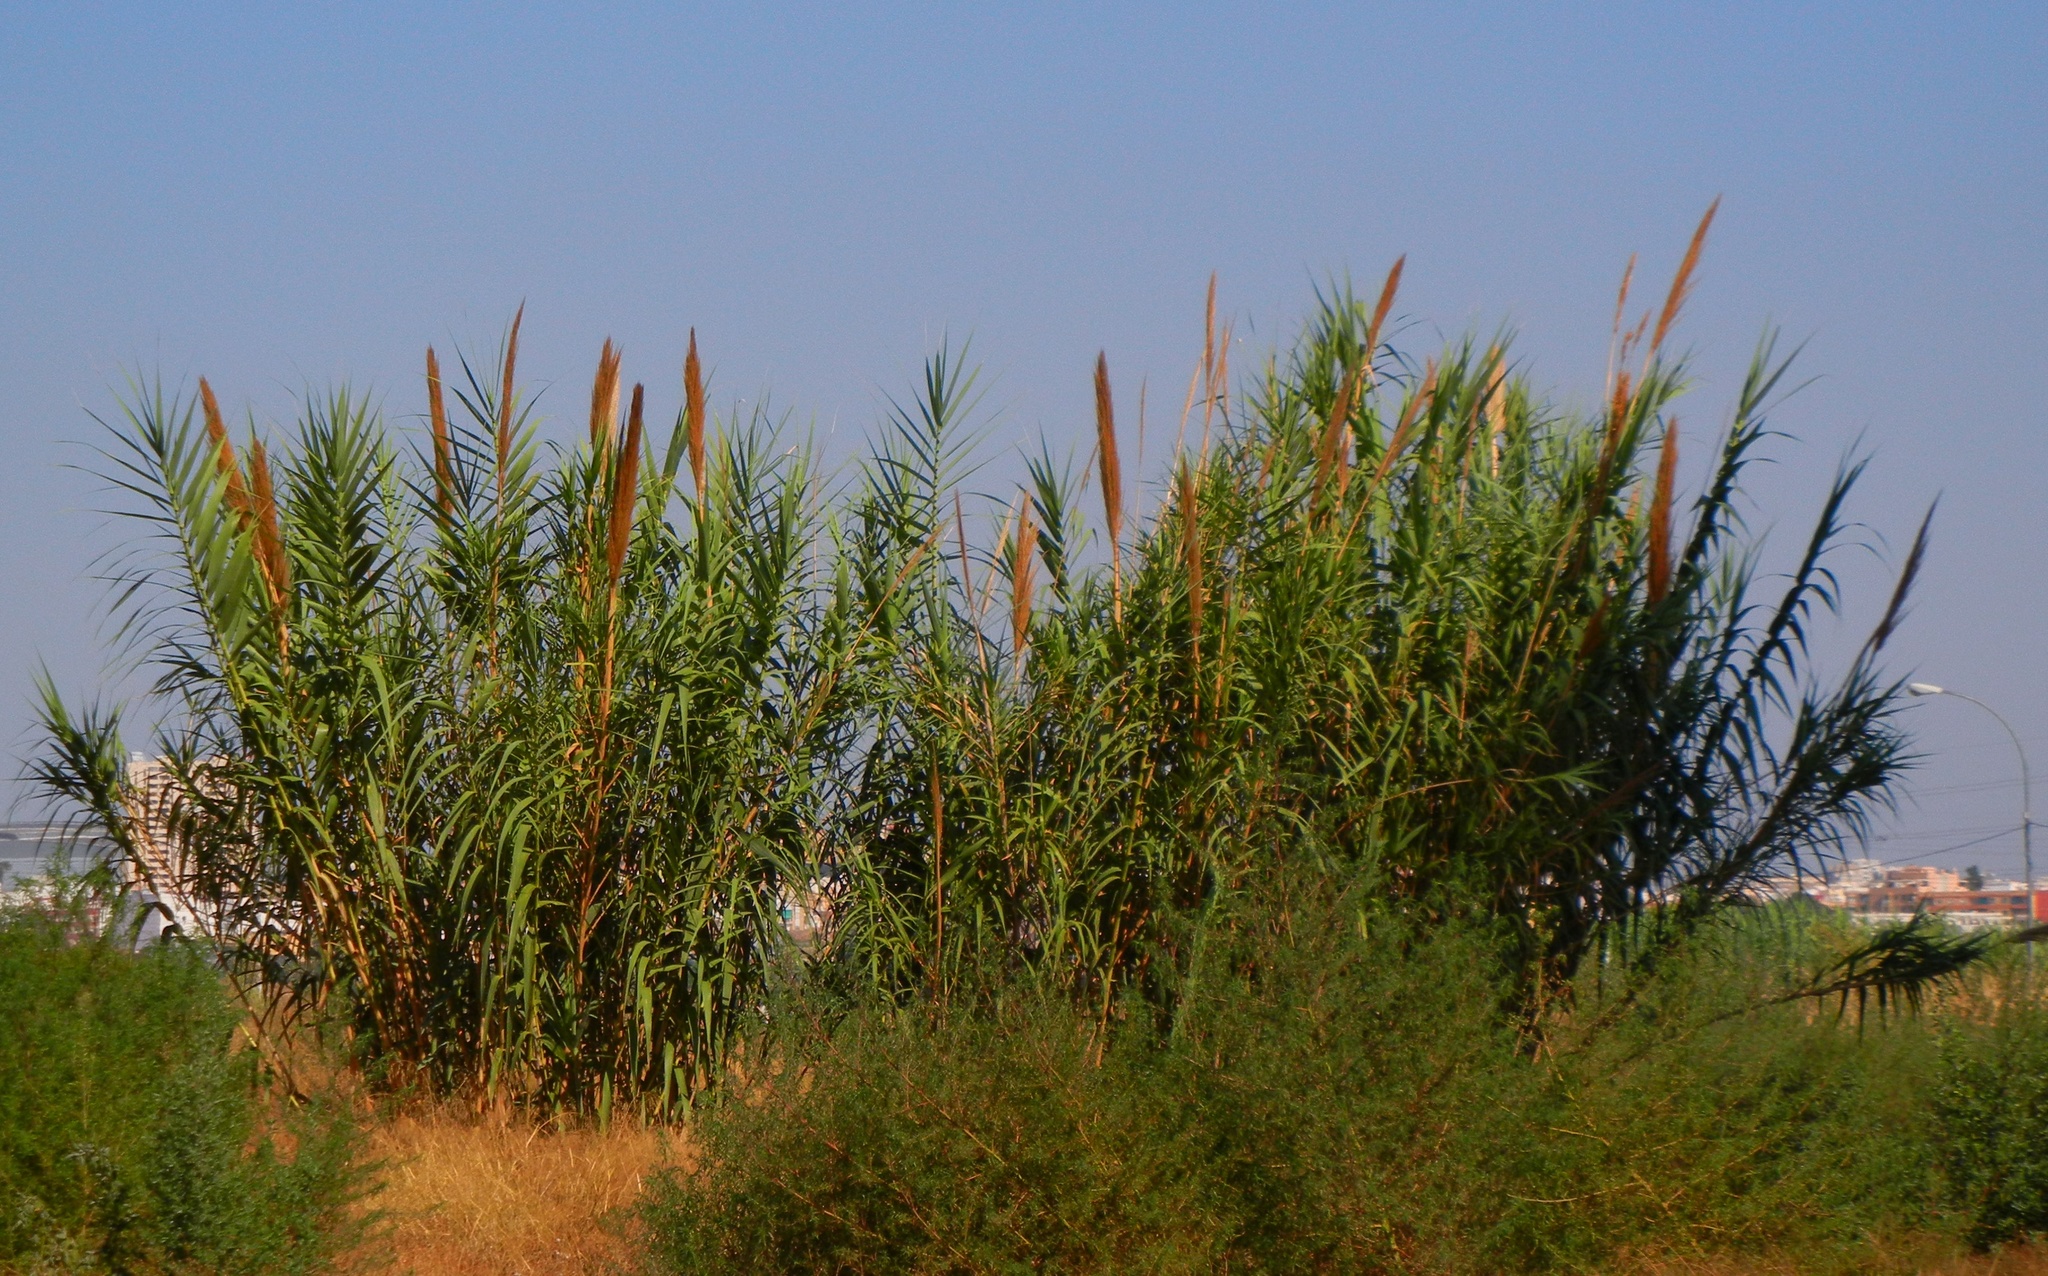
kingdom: Plantae
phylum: Tracheophyta
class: Liliopsida
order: Poales
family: Poaceae
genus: Arundo
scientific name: Arundo donax
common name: Giant reed
